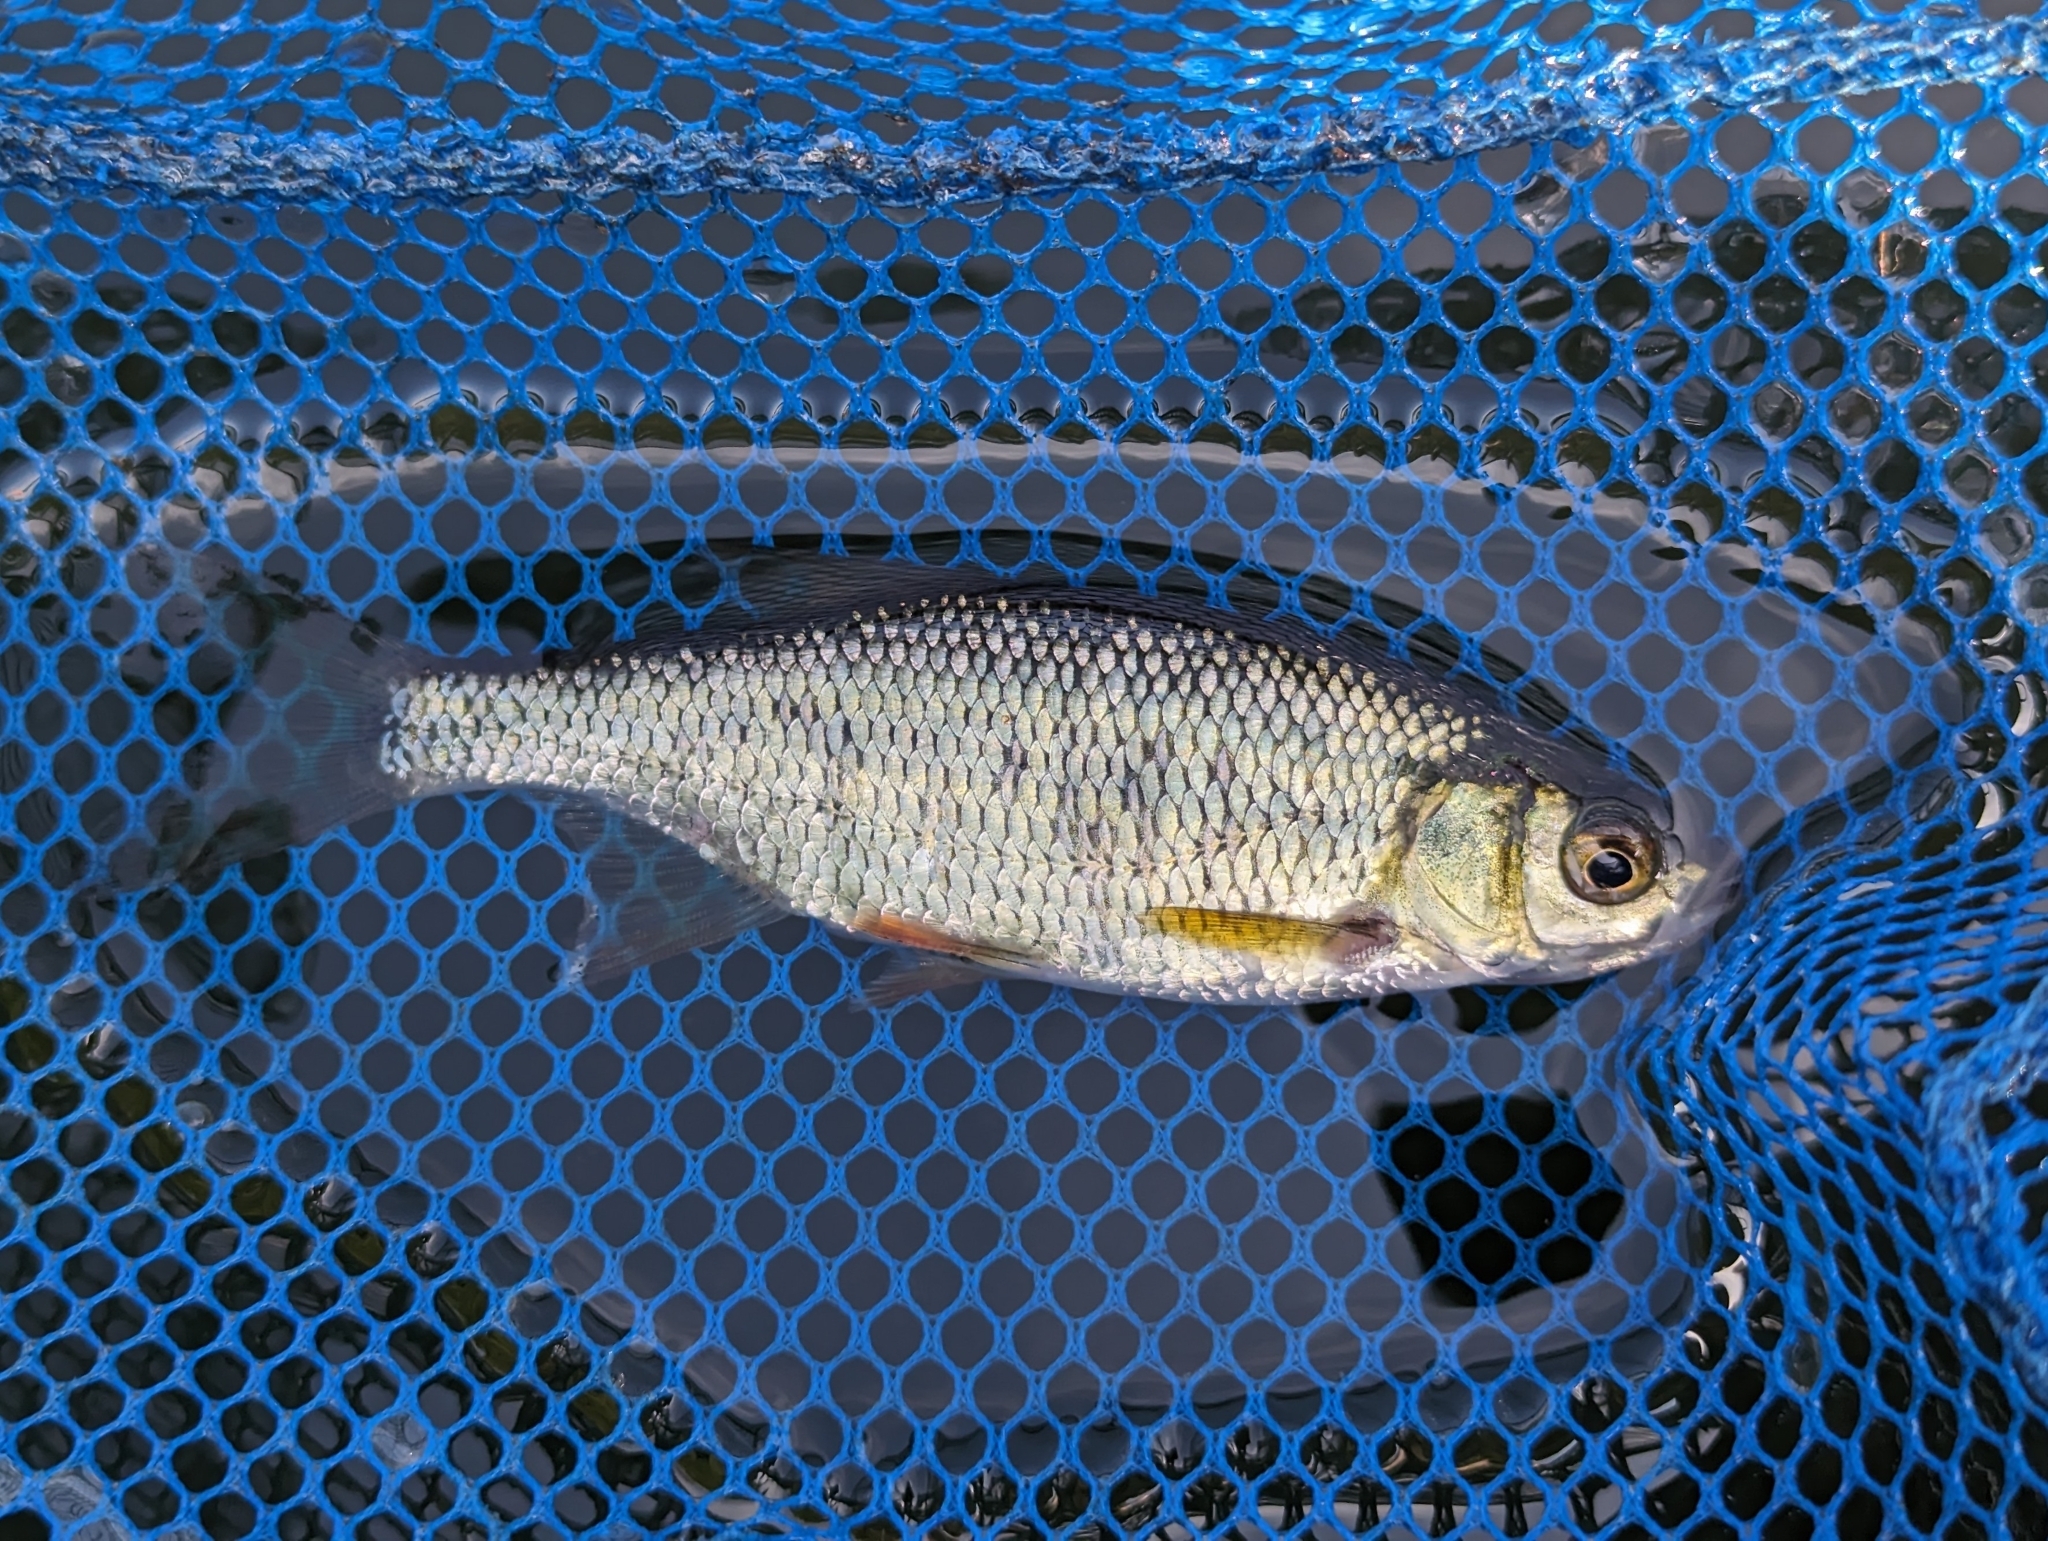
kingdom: Animalia
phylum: Chordata
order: Cypriniformes
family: Cyprinidae
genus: Notemigonus
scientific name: Notemigonus crysoleucas
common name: Golden shiner
